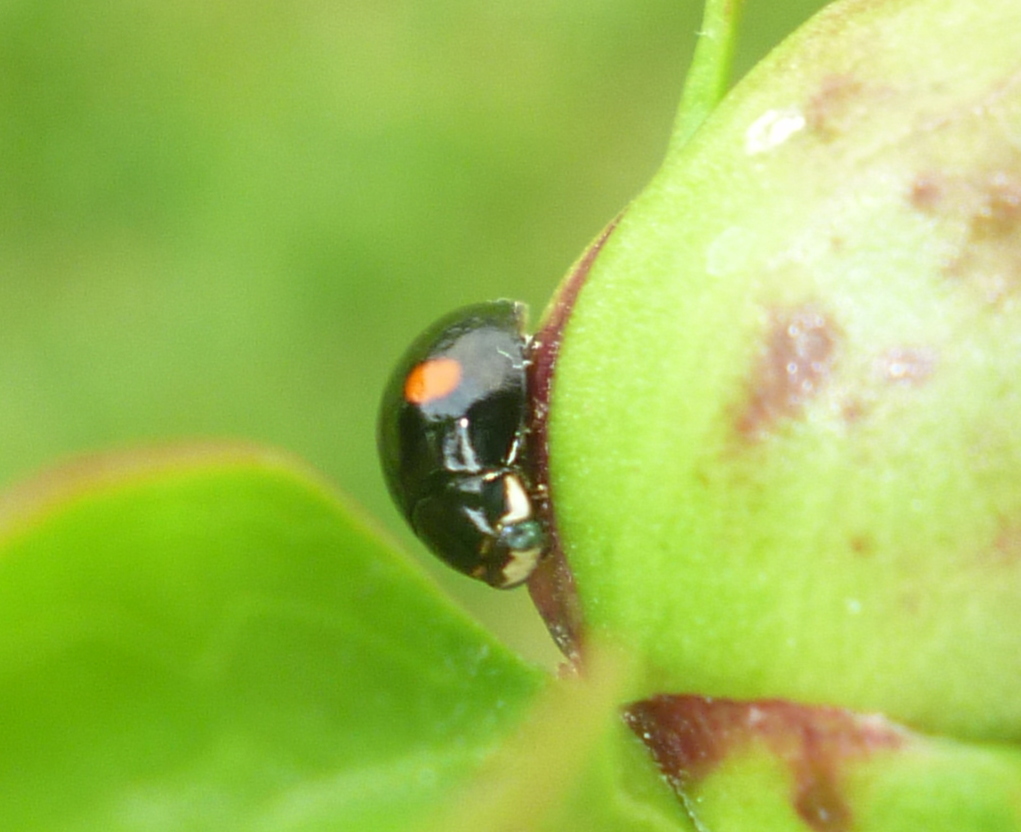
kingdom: Animalia
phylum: Arthropoda
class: Insecta
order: Coleoptera
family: Coccinellidae
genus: Hyperaspis
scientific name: Hyperaspis
